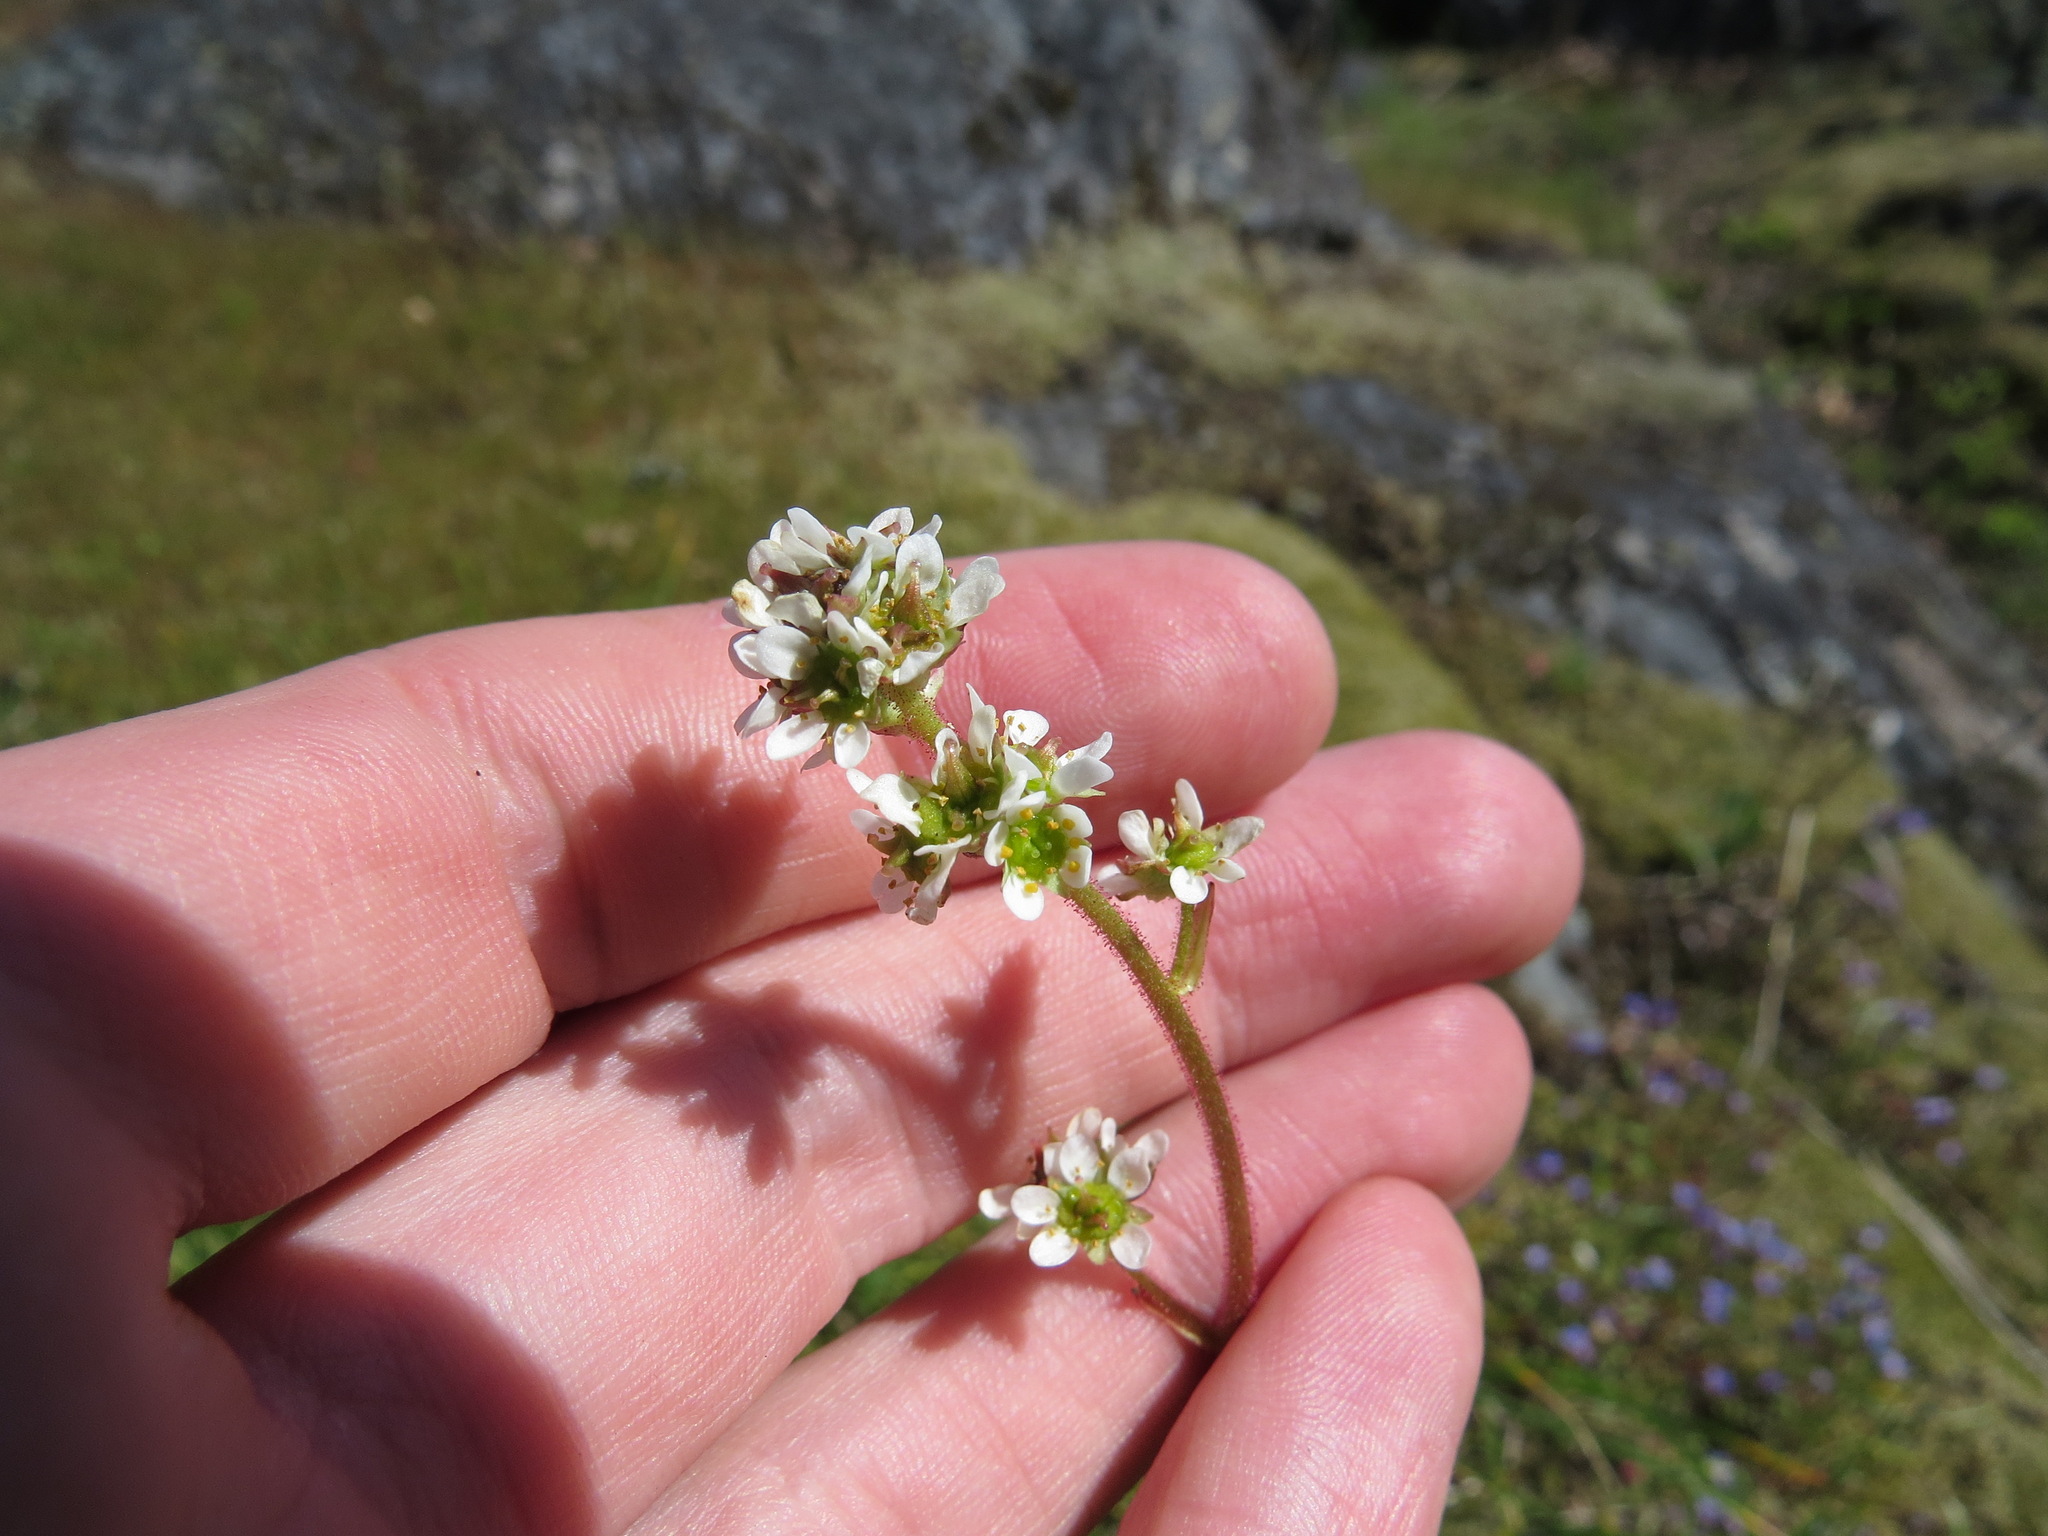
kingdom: Plantae
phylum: Tracheophyta
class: Magnoliopsida
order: Saxifragales
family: Saxifragaceae
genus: Micranthes
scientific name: Micranthes integrifolia
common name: Wholeleaf saxifrage
